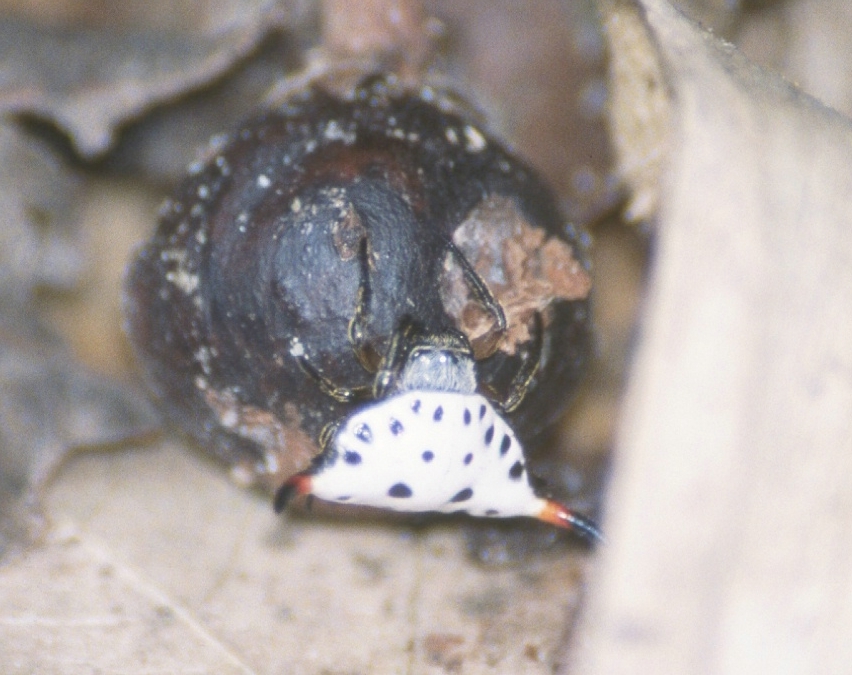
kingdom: Animalia
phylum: Arthropoda
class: Arachnida
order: Araneae
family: Araneidae
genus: Togacantha
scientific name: Togacantha nordviei
